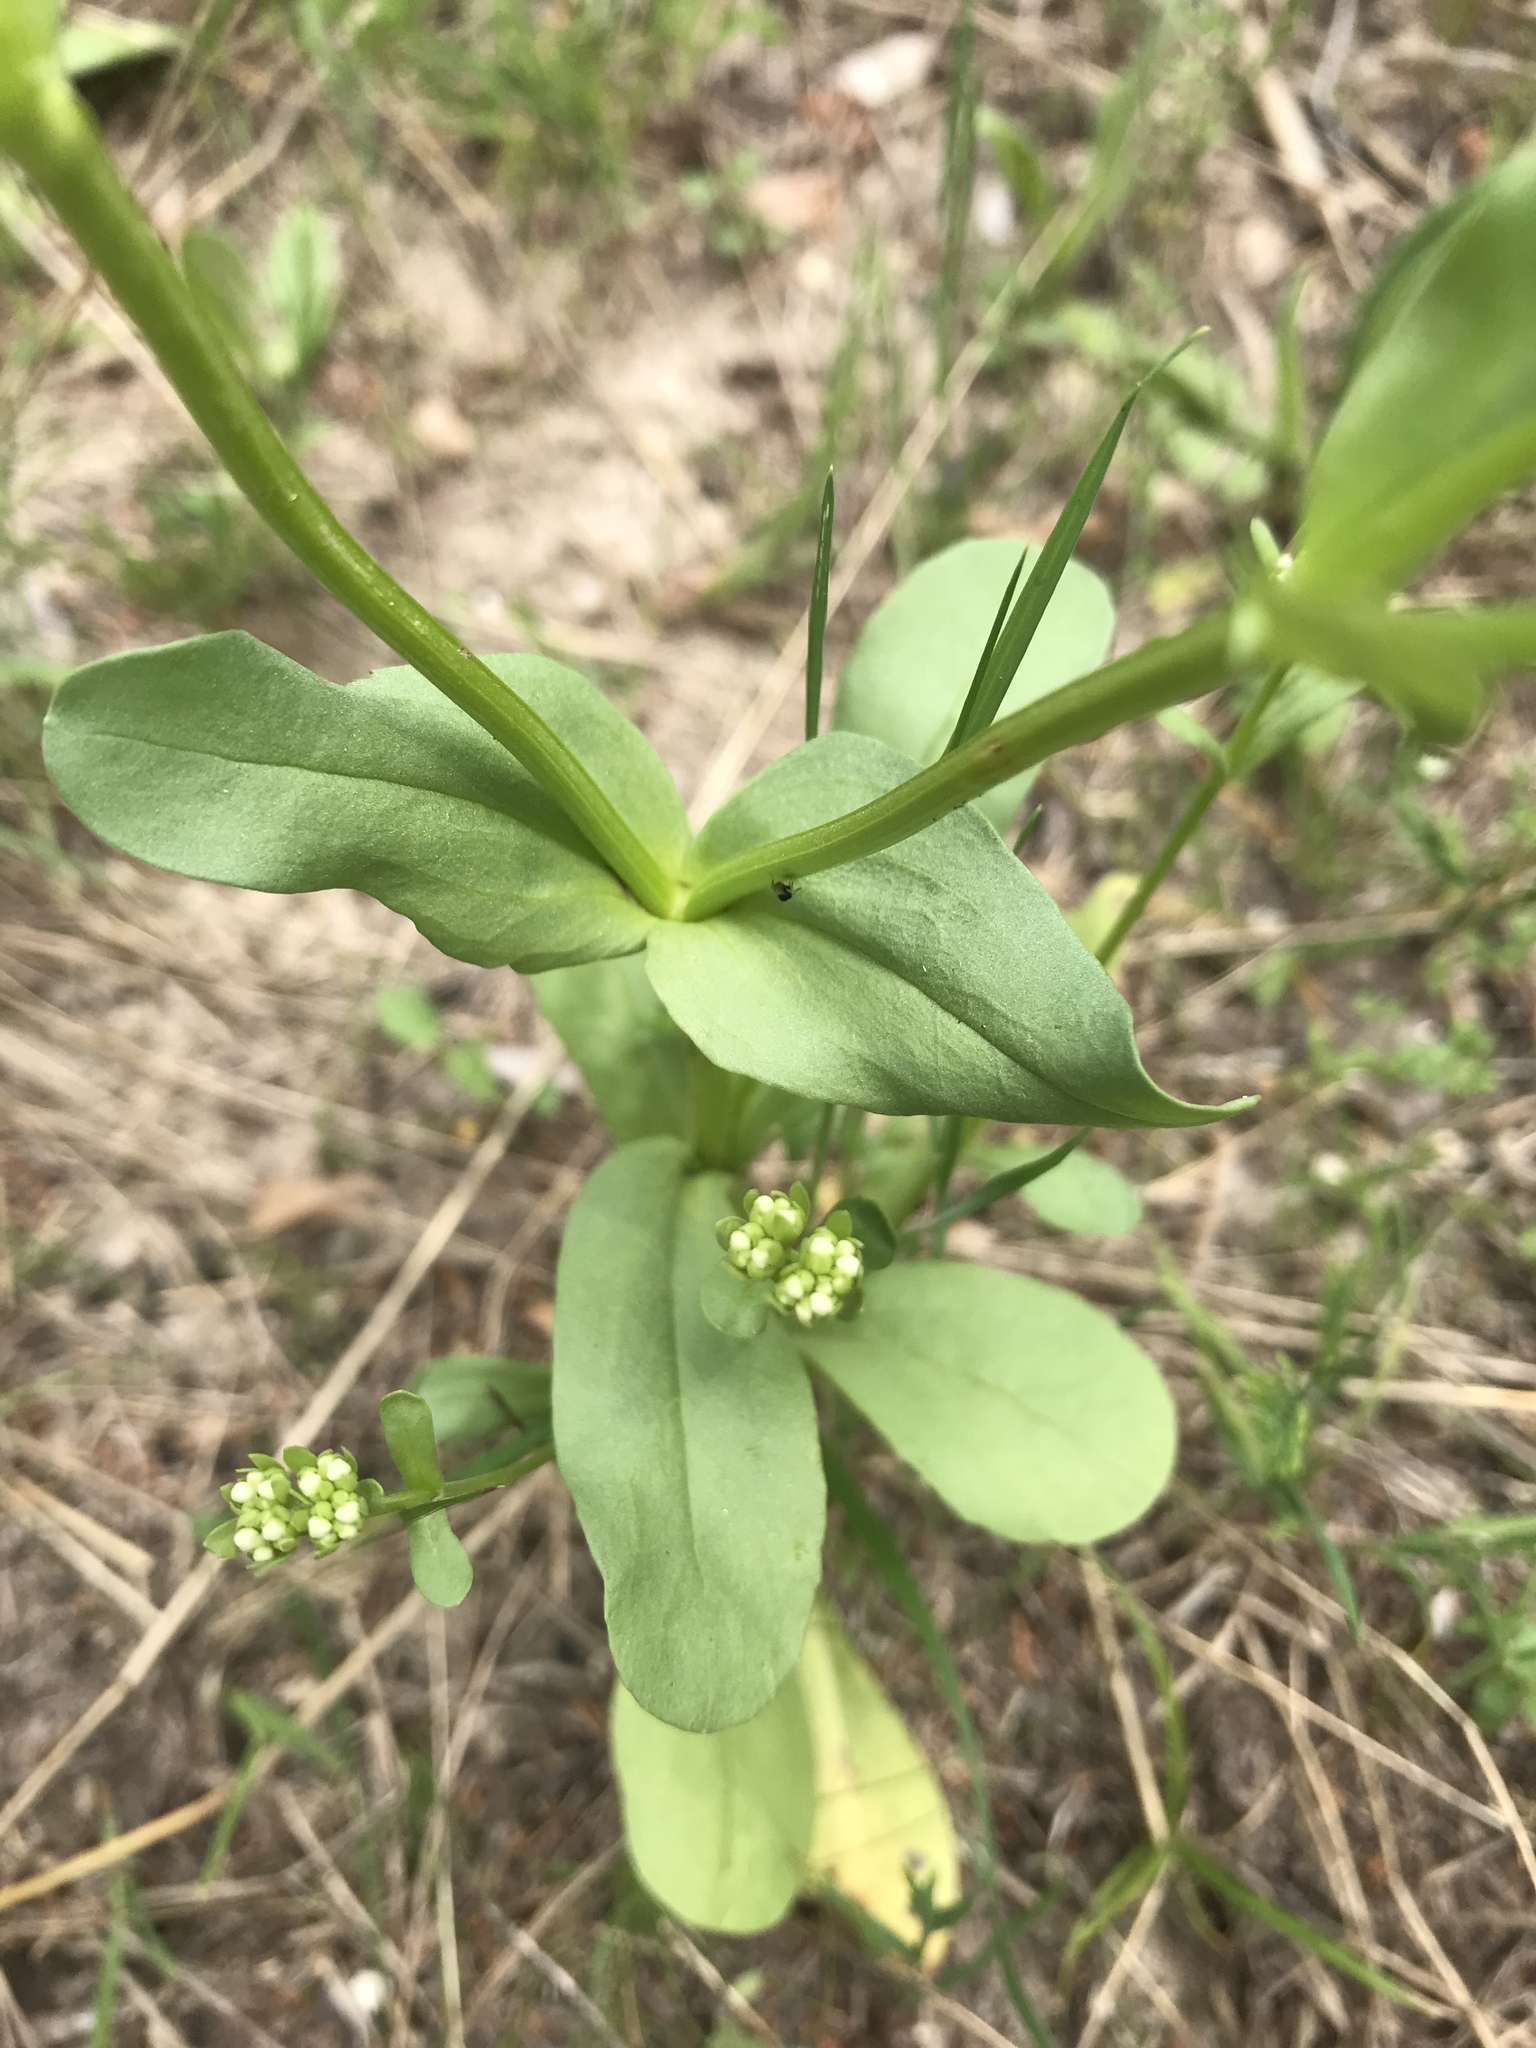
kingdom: Plantae
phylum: Tracheophyta
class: Magnoliopsida
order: Dipsacales
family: Caprifoliaceae
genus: Valerianella
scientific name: Valerianella amarella
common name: Hariy cornsalad
